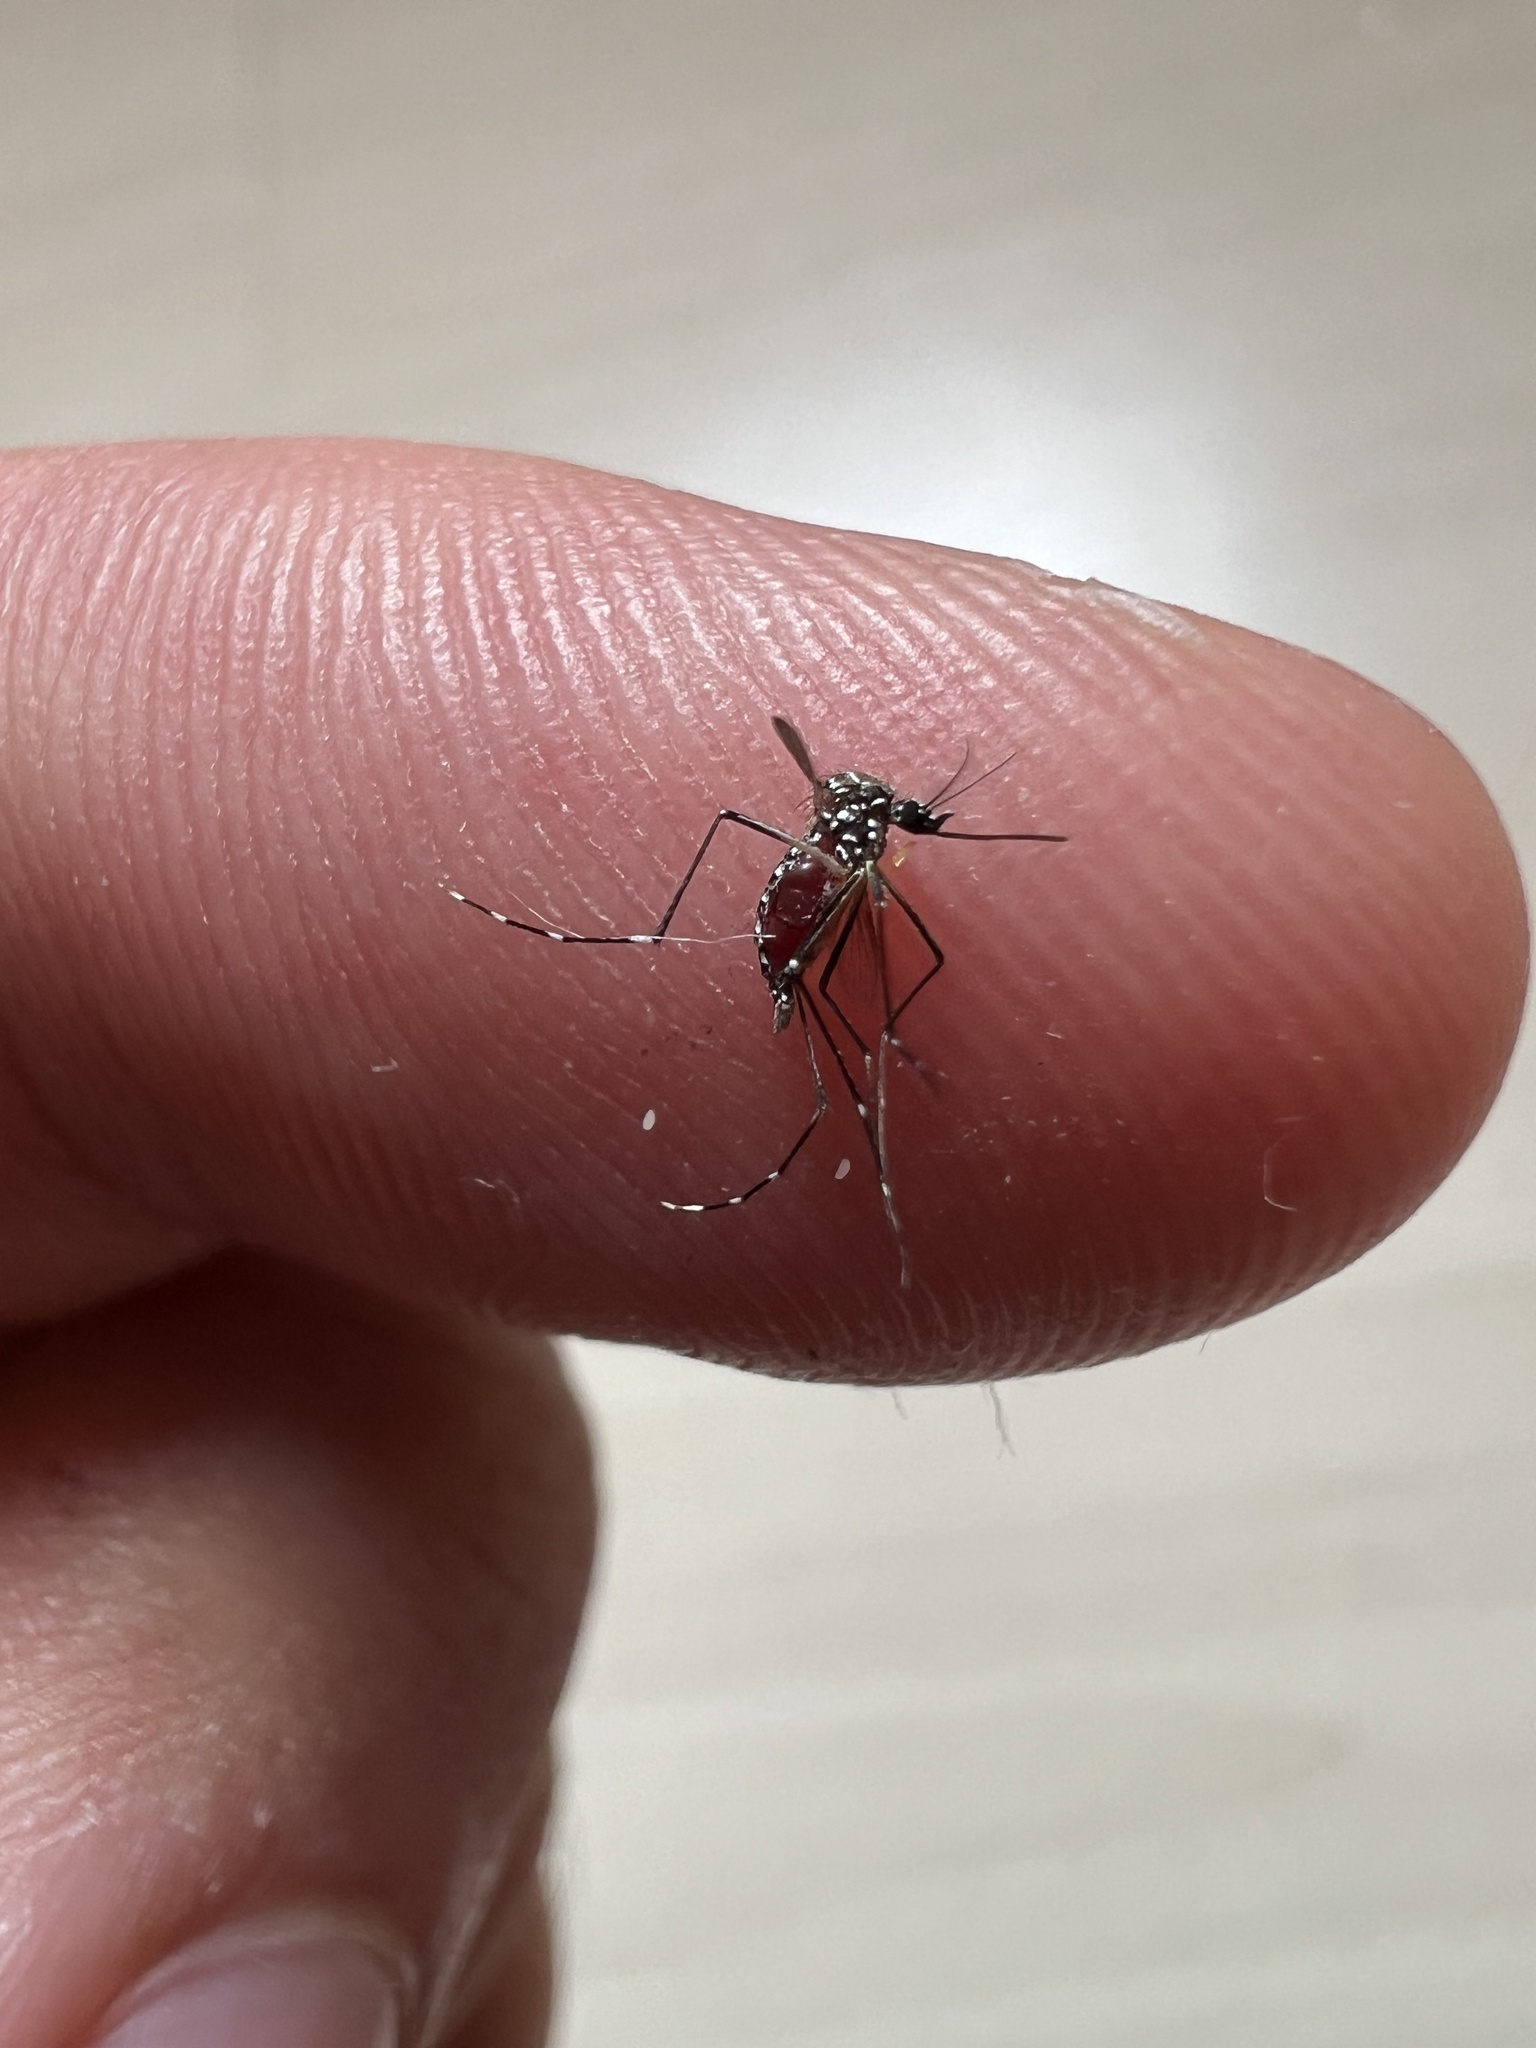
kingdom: Animalia
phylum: Arthropoda
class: Insecta
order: Diptera
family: Culicidae
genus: Aedes
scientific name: Aedes aegypti
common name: Yellow fever mosquito
